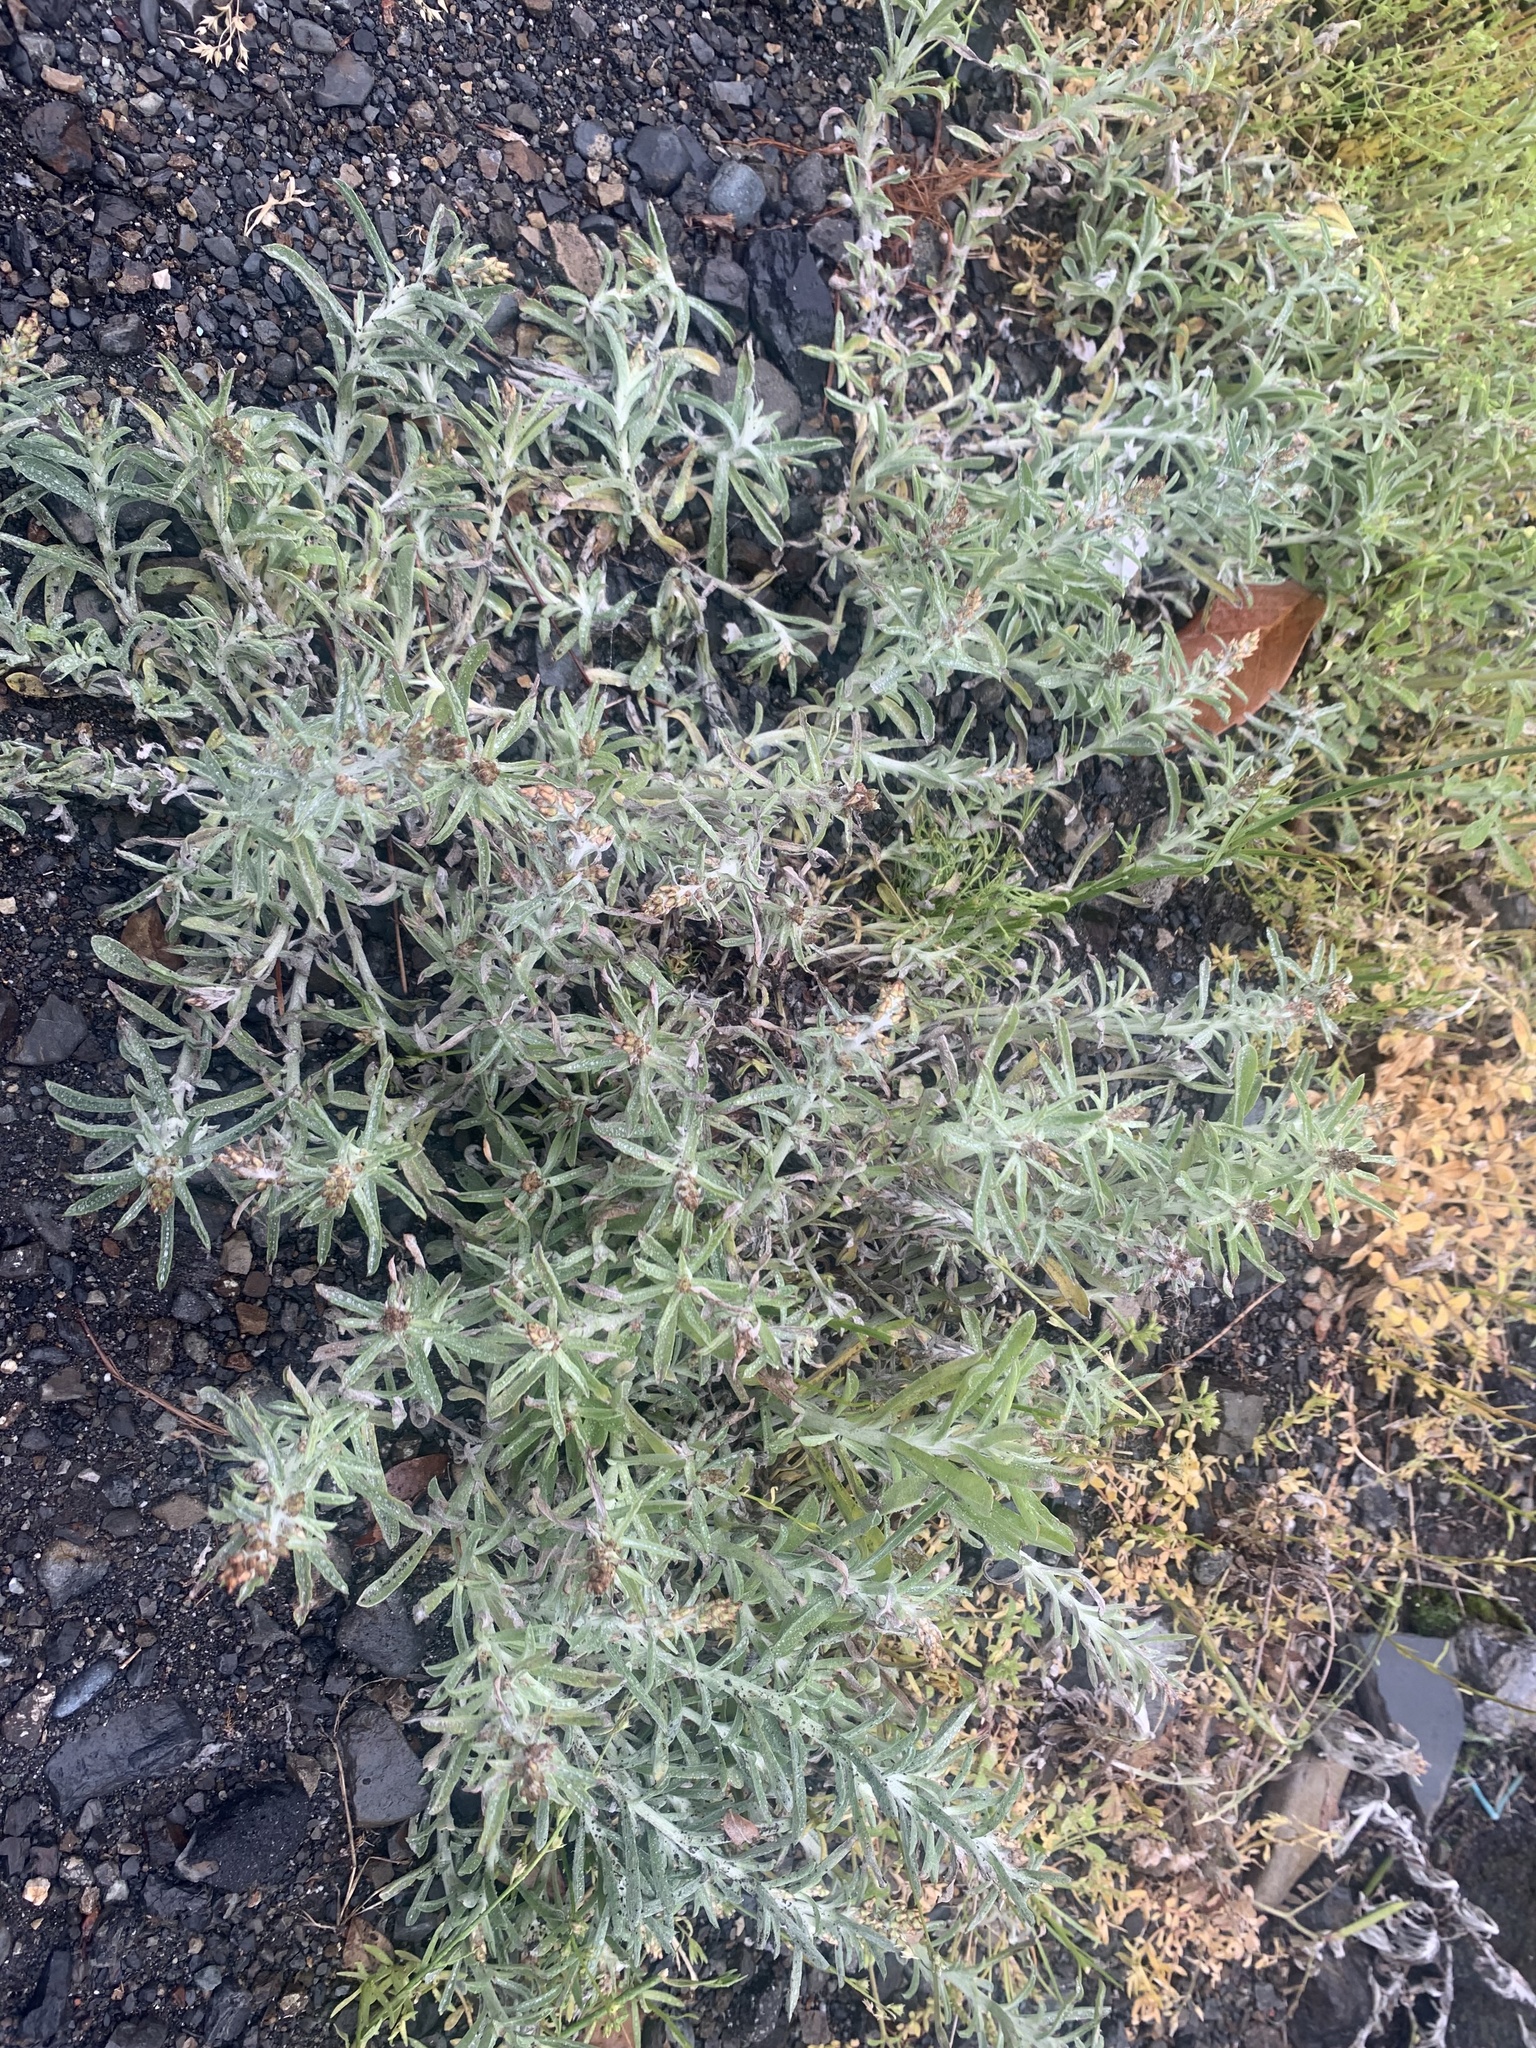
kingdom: Plantae
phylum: Tracheophyta
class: Magnoliopsida
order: Asterales
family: Asteraceae
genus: Gamochaeta
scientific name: Gamochaeta calviceps
